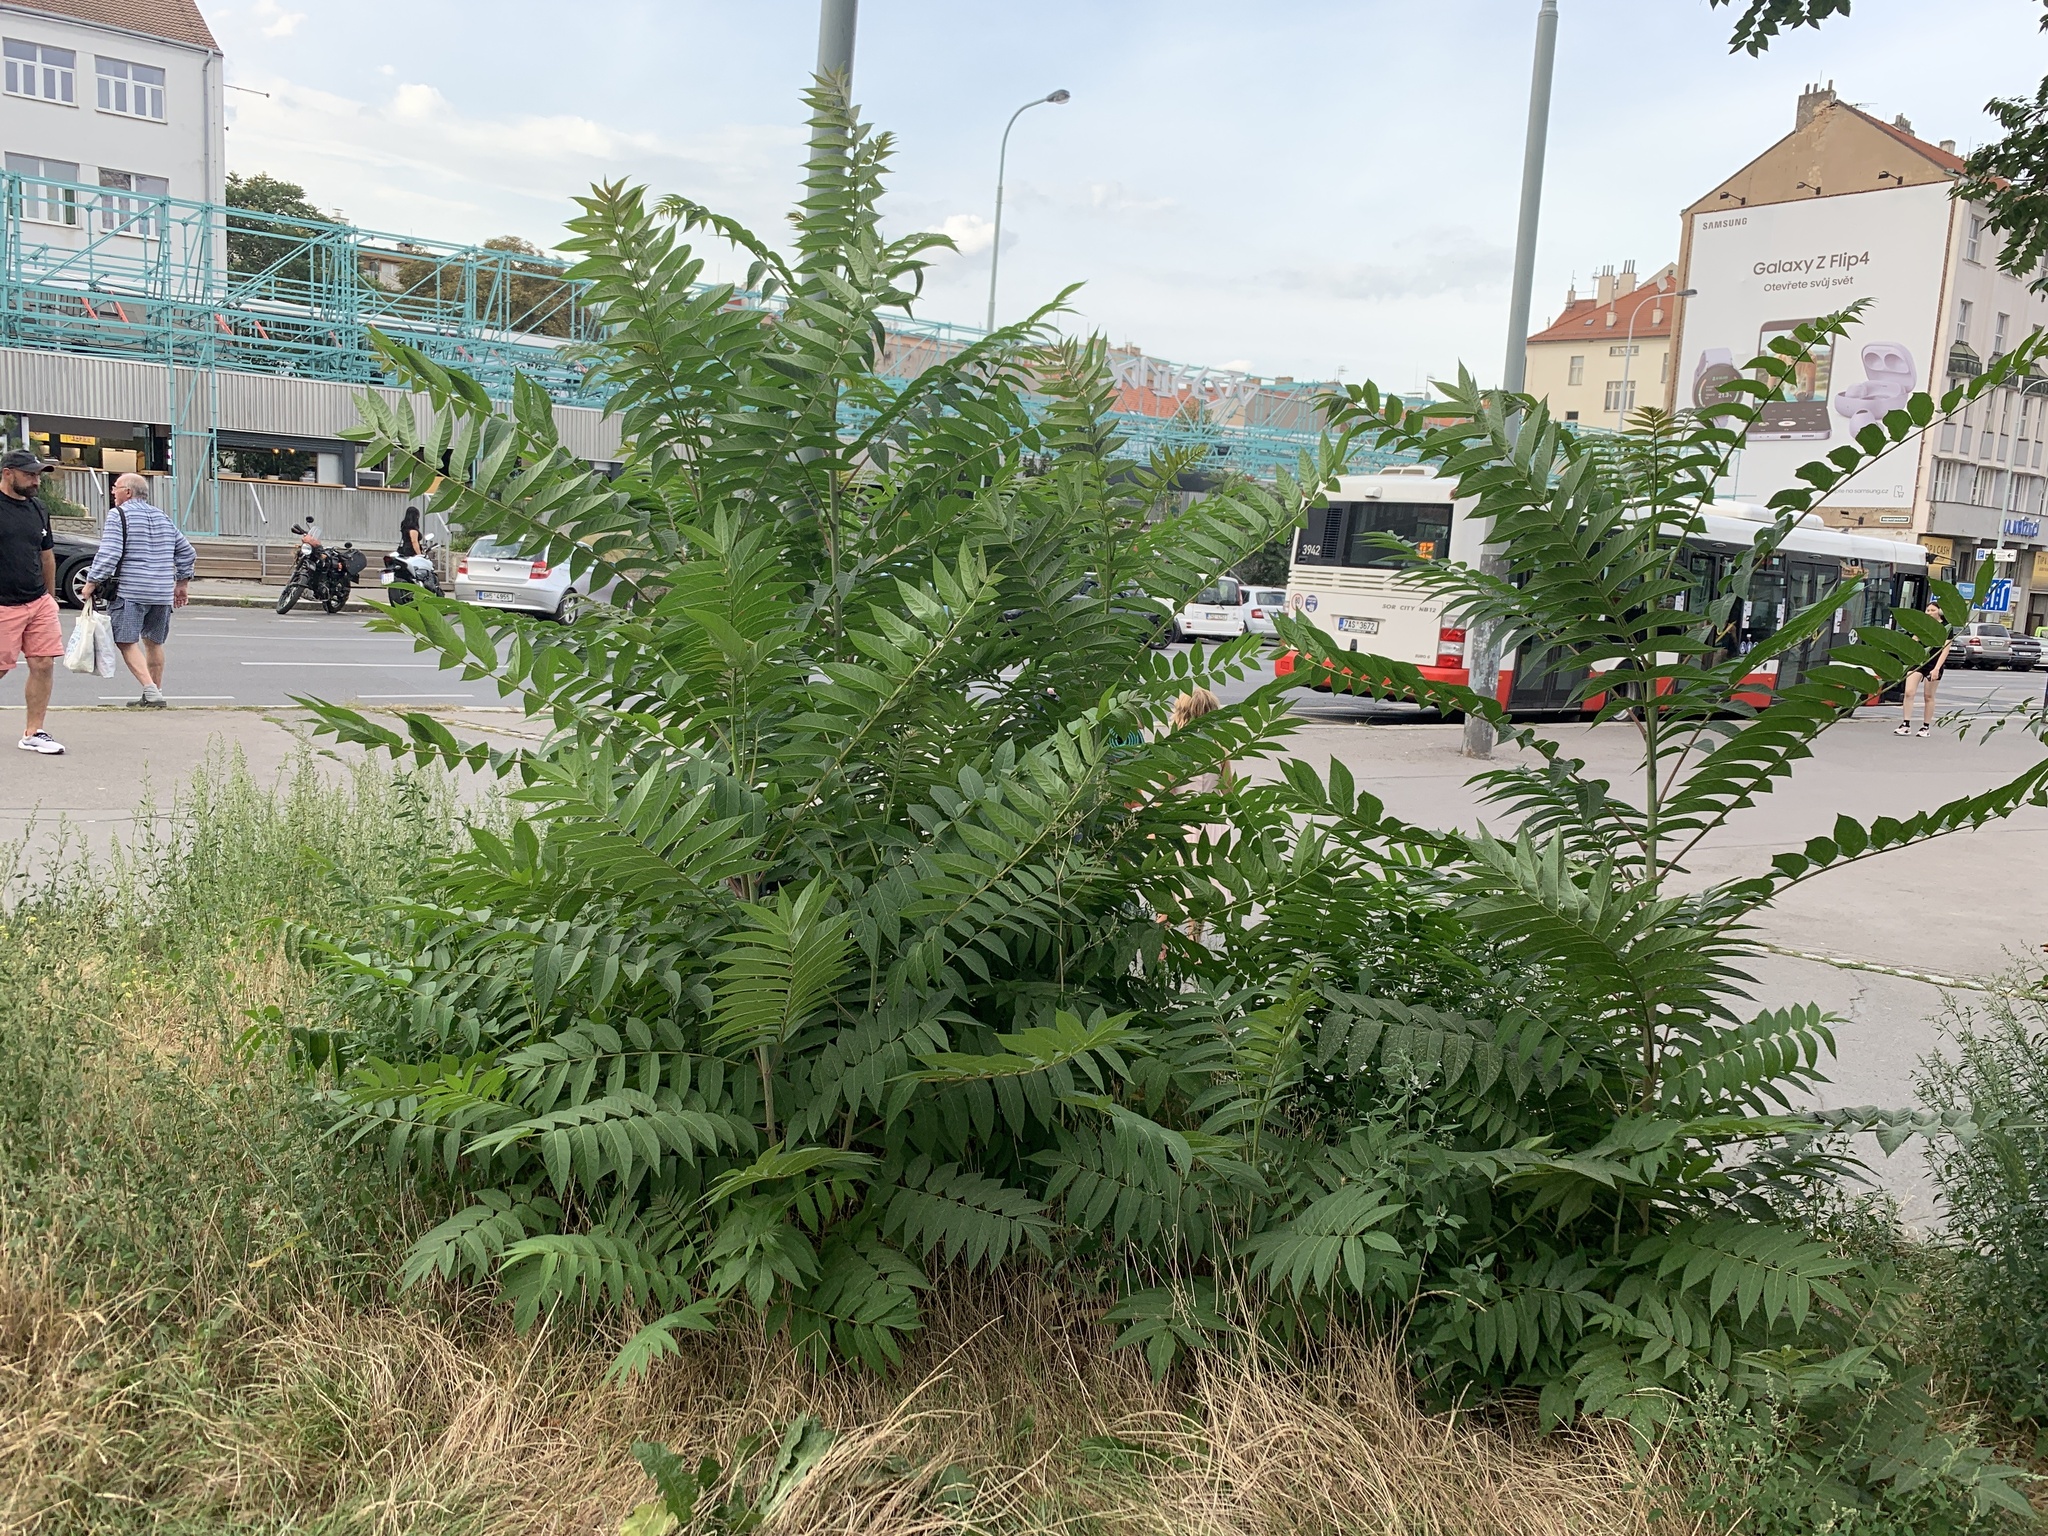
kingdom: Plantae
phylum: Tracheophyta
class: Magnoliopsida
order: Sapindales
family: Simaroubaceae
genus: Ailanthus
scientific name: Ailanthus altissima
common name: Tree-of-heaven
